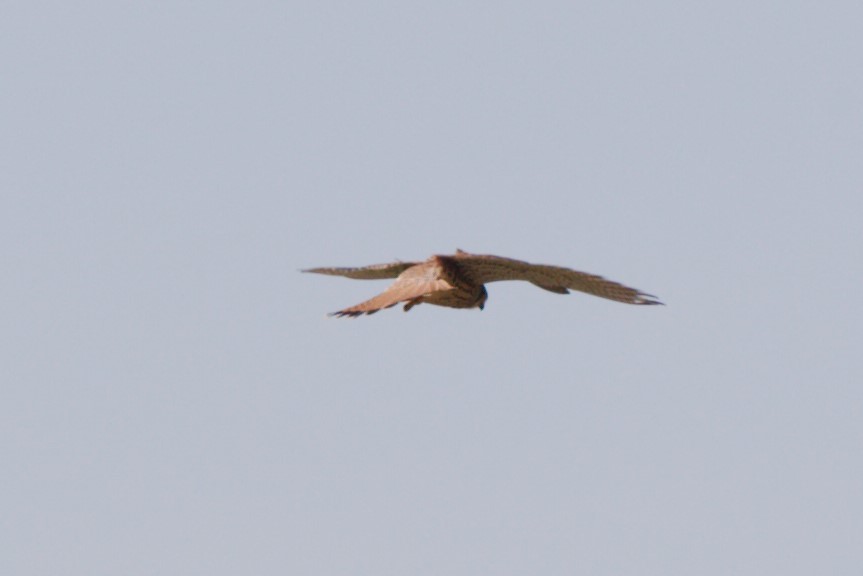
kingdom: Animalia
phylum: Chordata
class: Aves
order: Falconiformes
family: Falconidae
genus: Falco
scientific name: Falco tinnunculus
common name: Common kestrel
